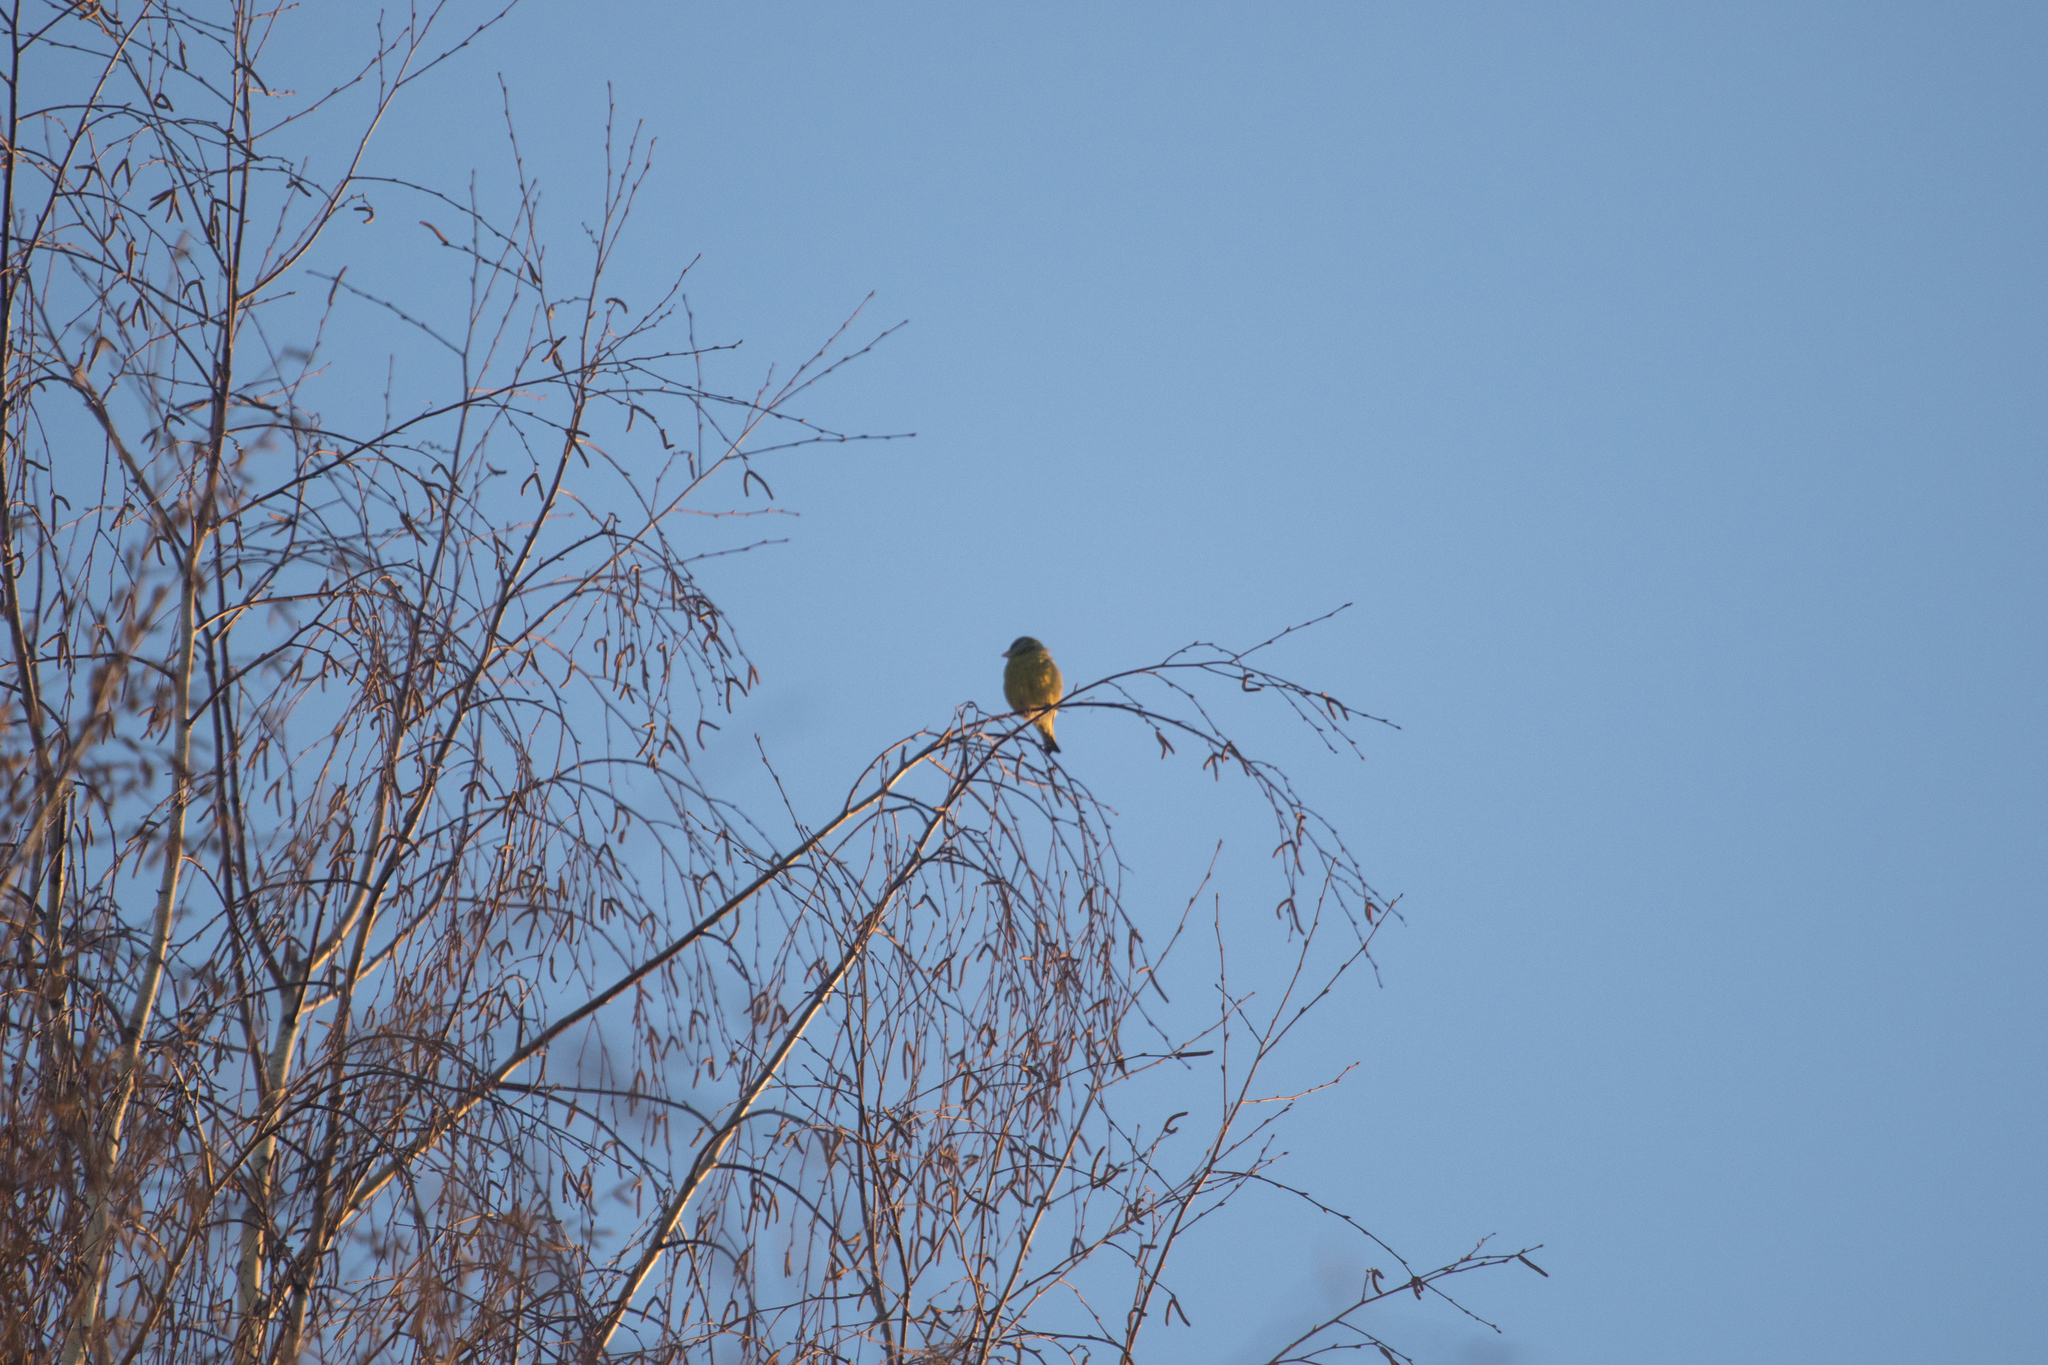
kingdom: Plantae
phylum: Tracheophyta
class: Liliopsida
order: Poales
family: Poaceae
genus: Chloris
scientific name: Chloris chloris
